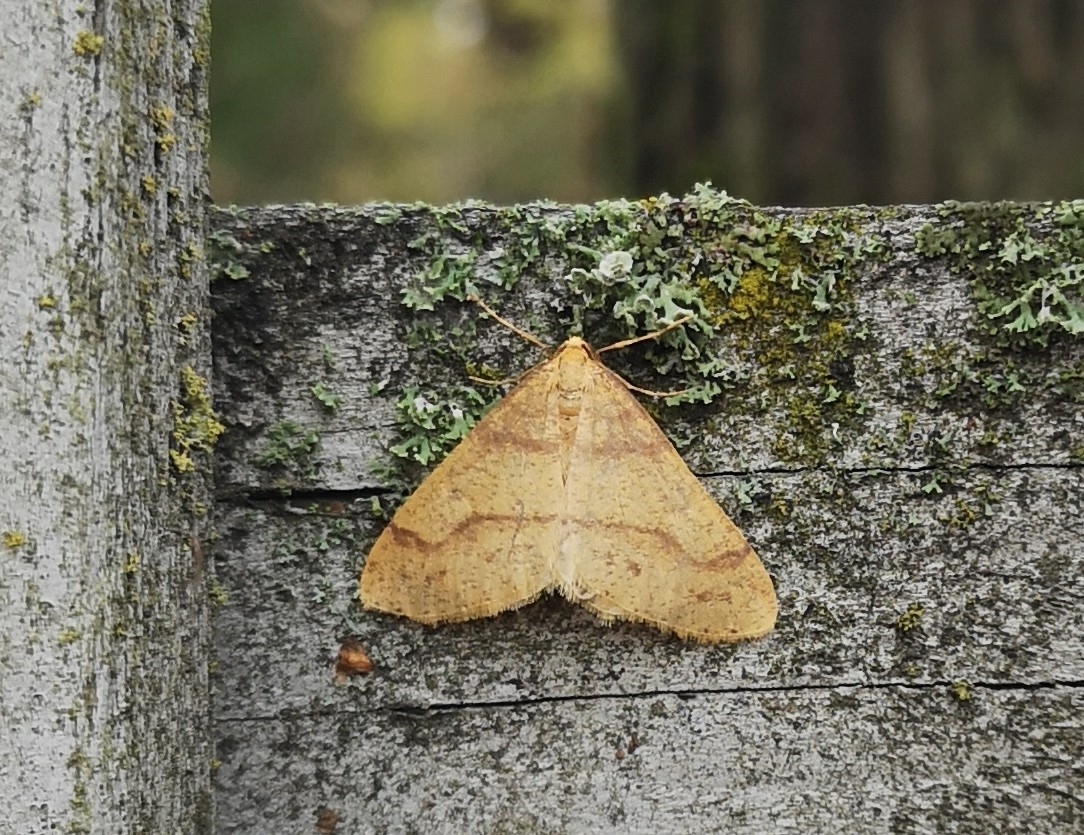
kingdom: Animalia
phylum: Arthropoda
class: Insecta
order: Lepidoptera
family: Geometridae
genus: Agriopis
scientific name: Agriopis aurantiaria
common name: Scarce umber
